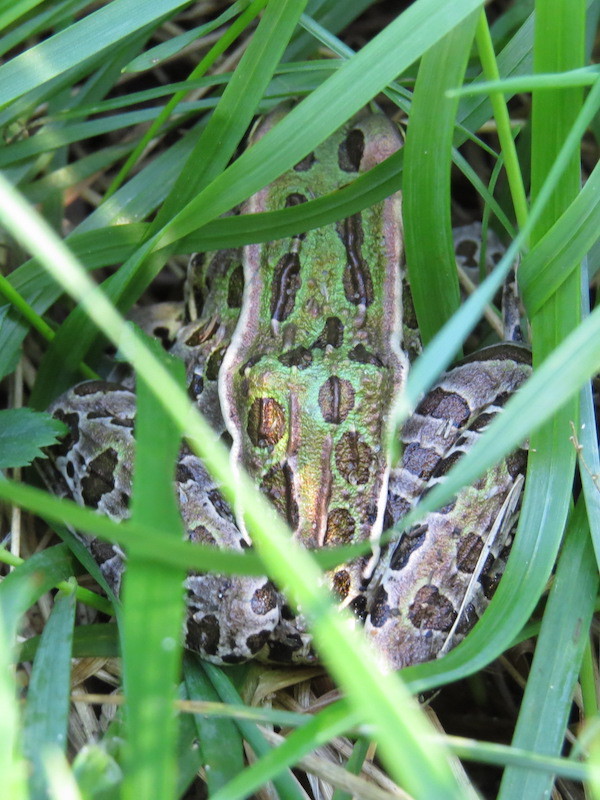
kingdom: Animalia
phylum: Chordata
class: Amphibia
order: Anura
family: Ranidae
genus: Lithobates
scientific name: Lithobates pipiens
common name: Northern leopard frog
